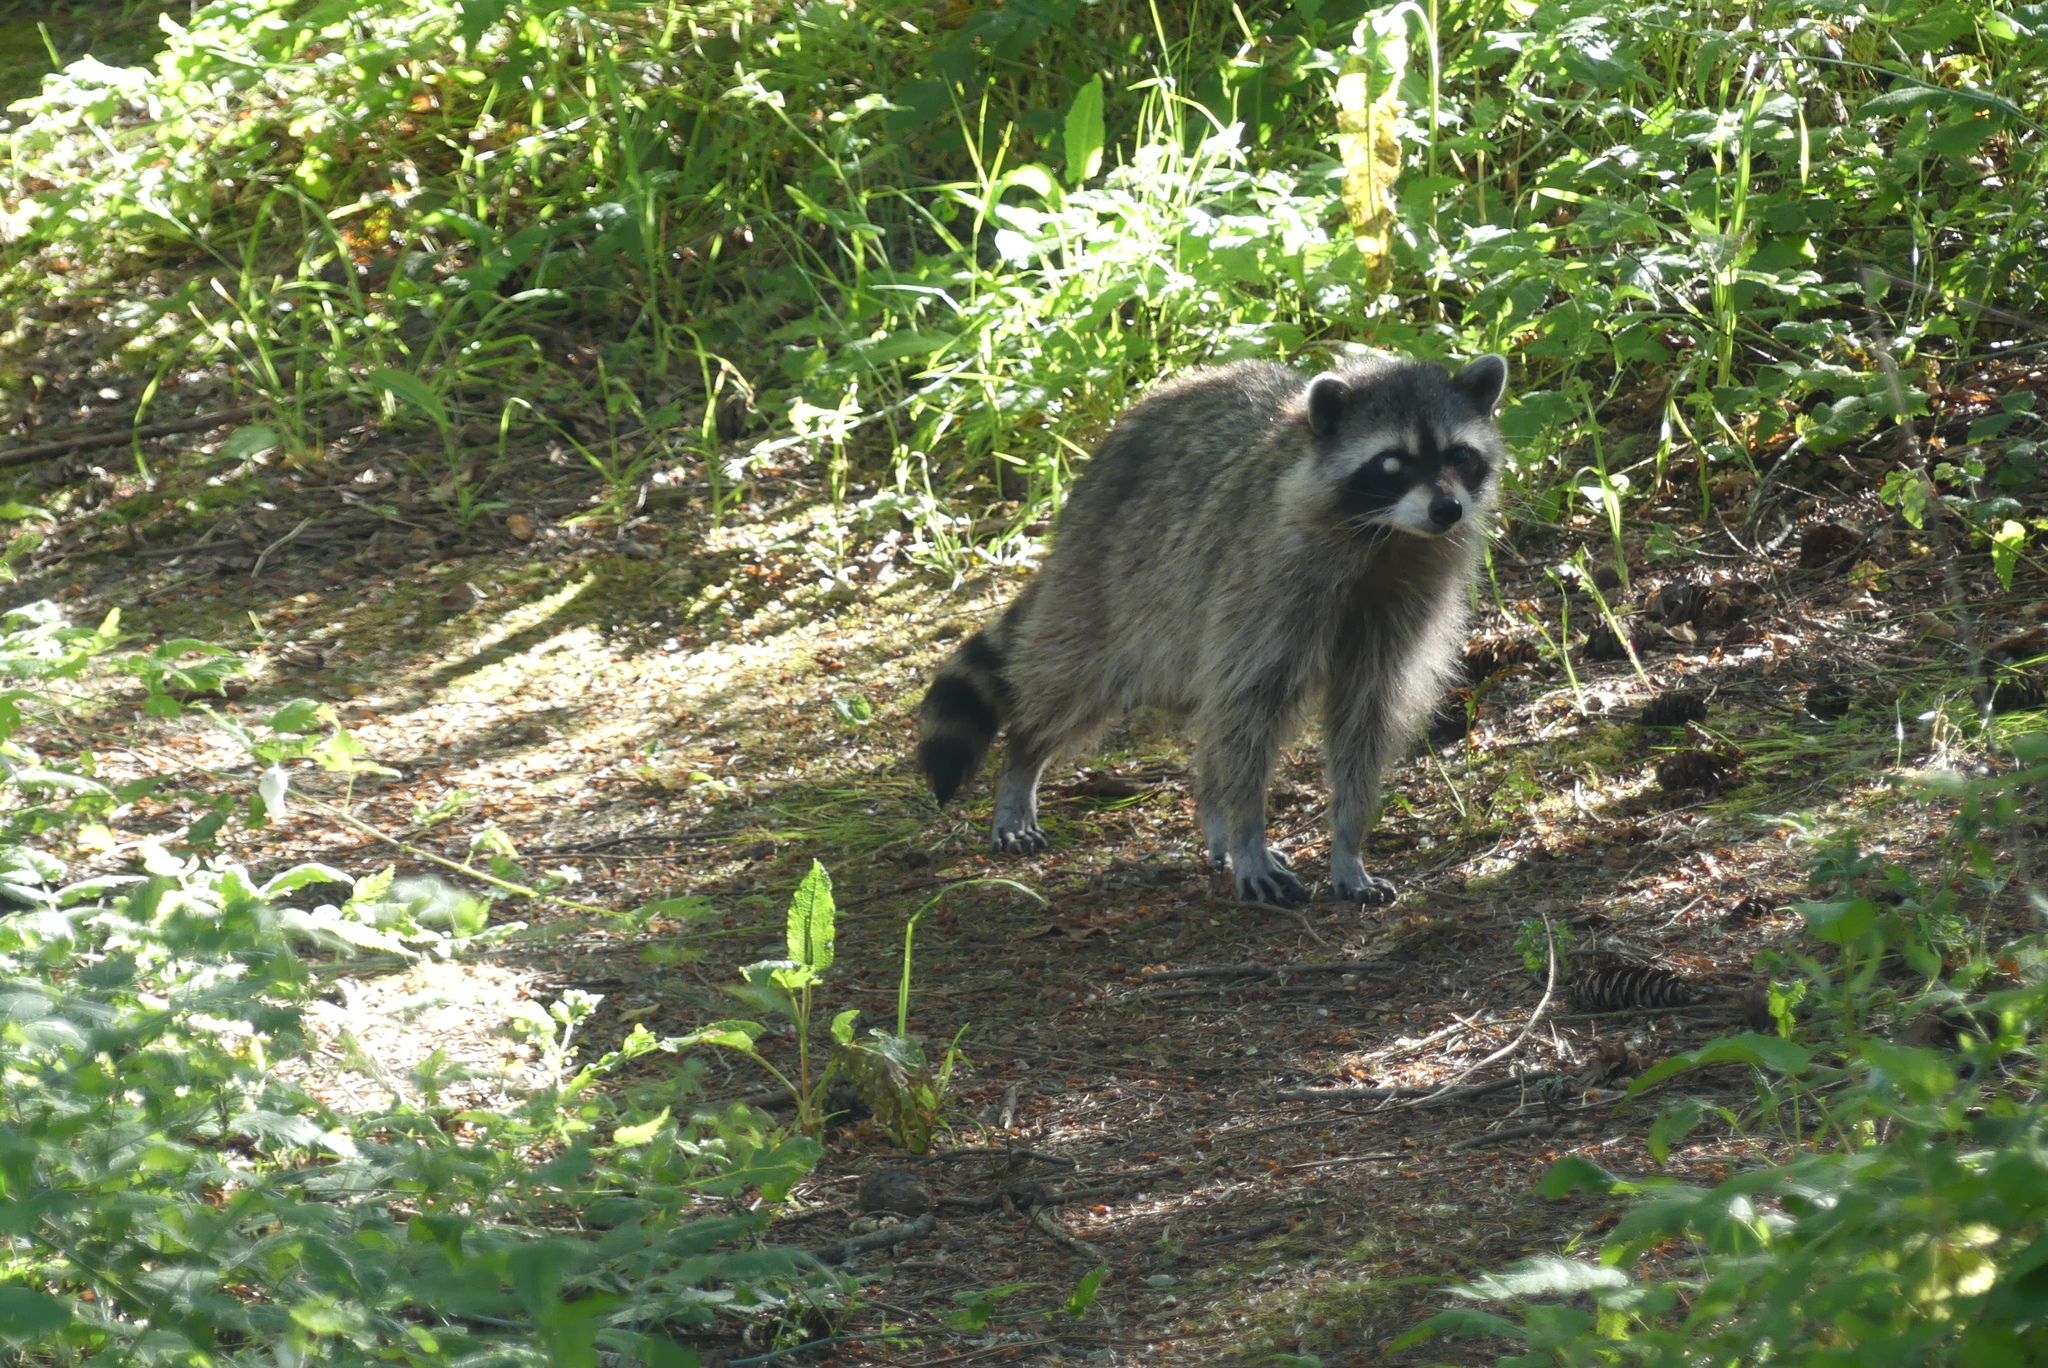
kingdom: Animalia
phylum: Chordata
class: Mammalia
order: Carnivora
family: Procyonidae
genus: Procyon
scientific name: Procyon lotor
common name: Raccoon
